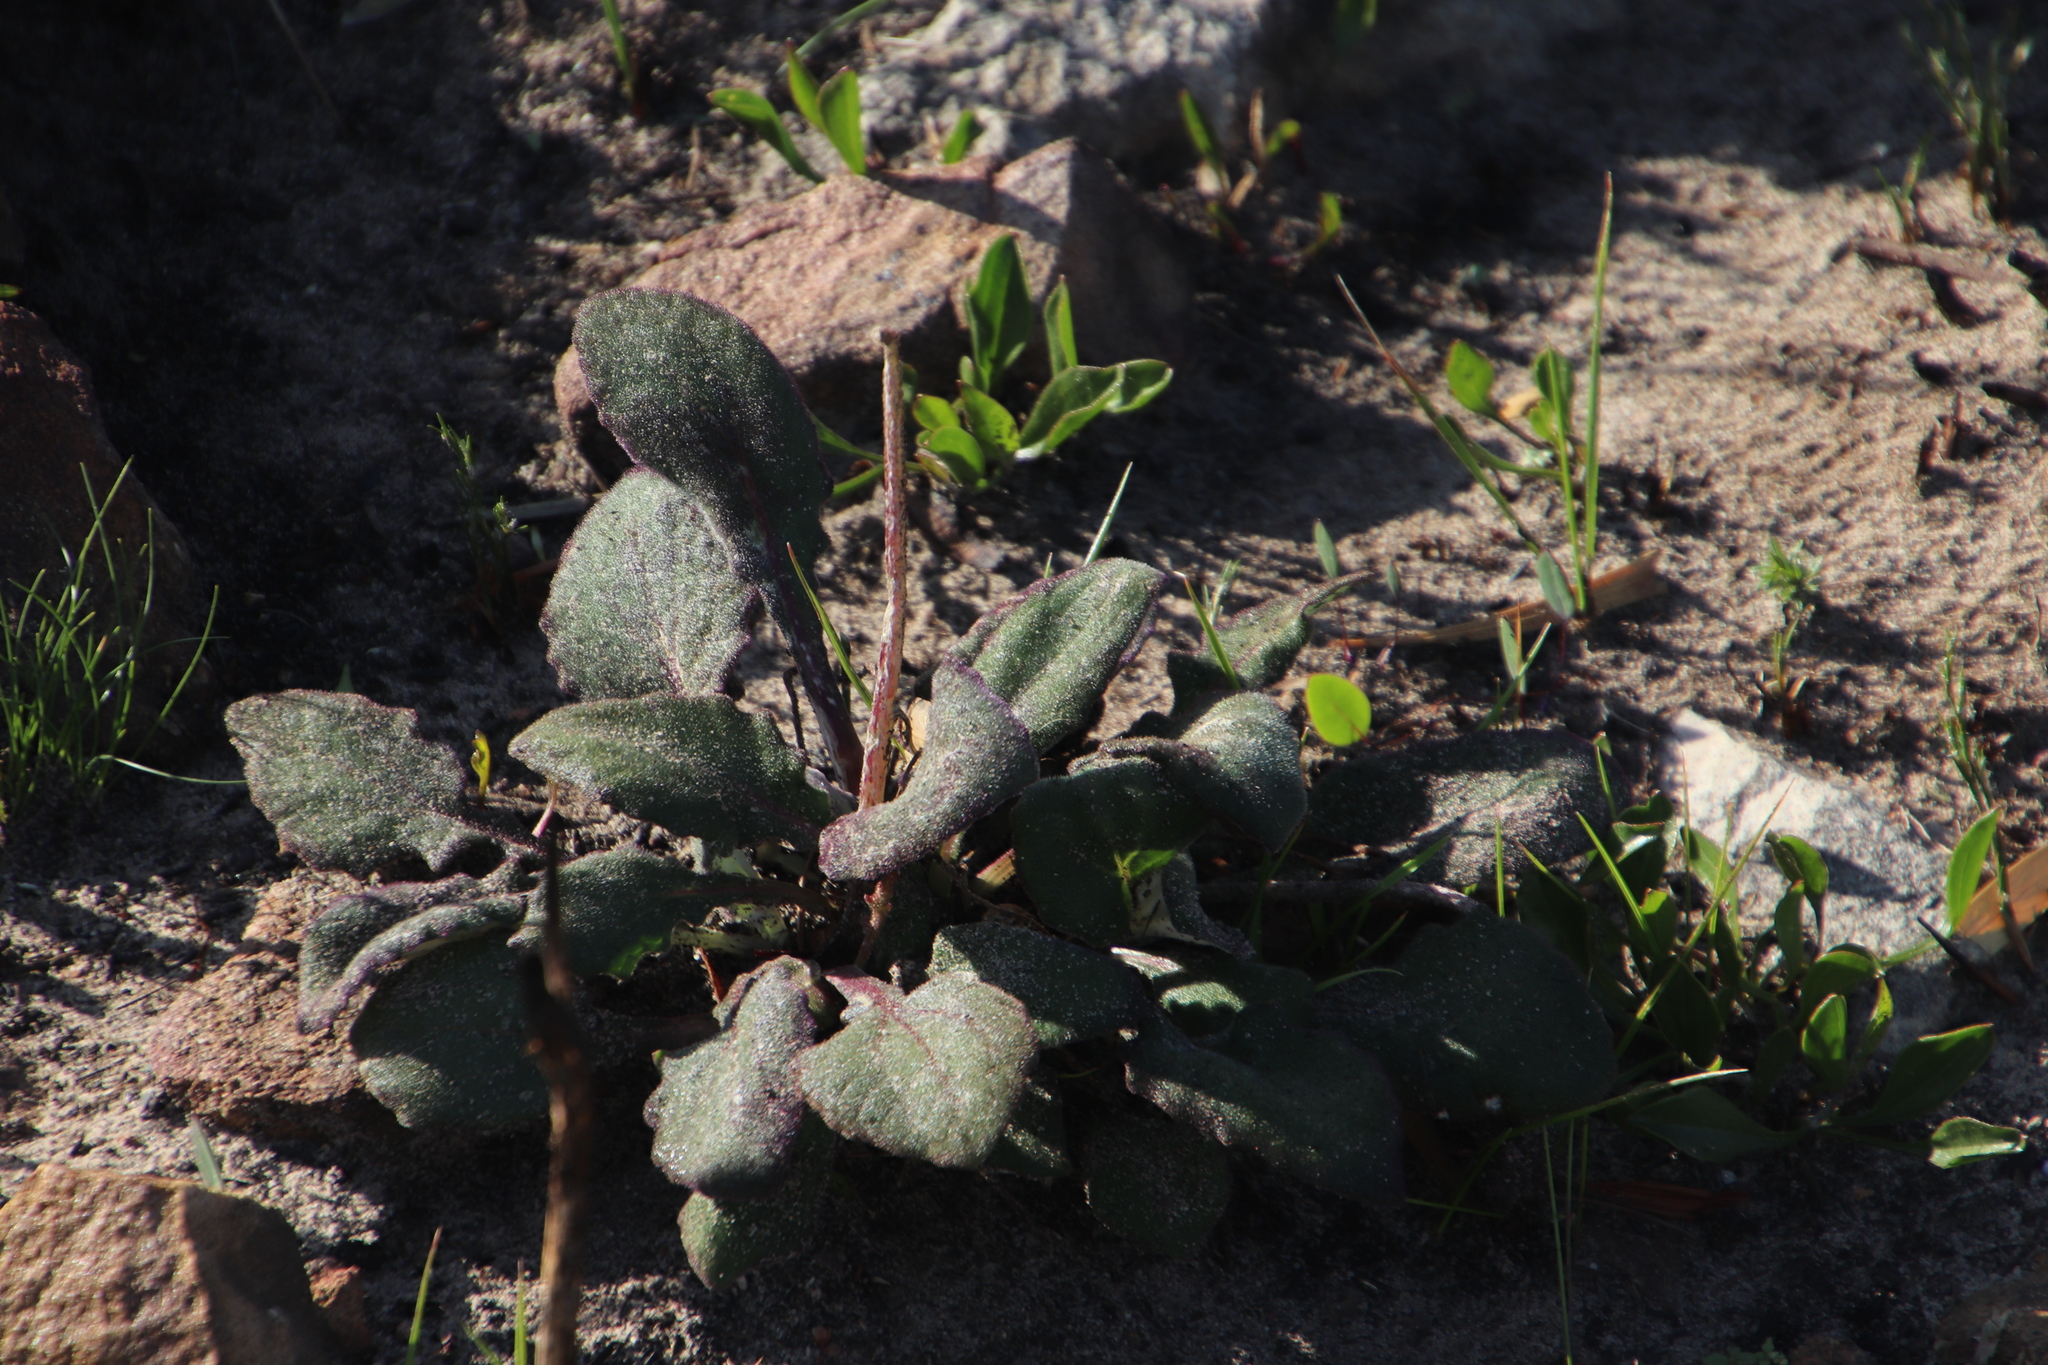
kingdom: Plantae
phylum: Tracheophyta
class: Magnoliopsida
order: Asterales
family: Asteraceae
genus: Haplocarpha
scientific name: Haplocarpha lanata
